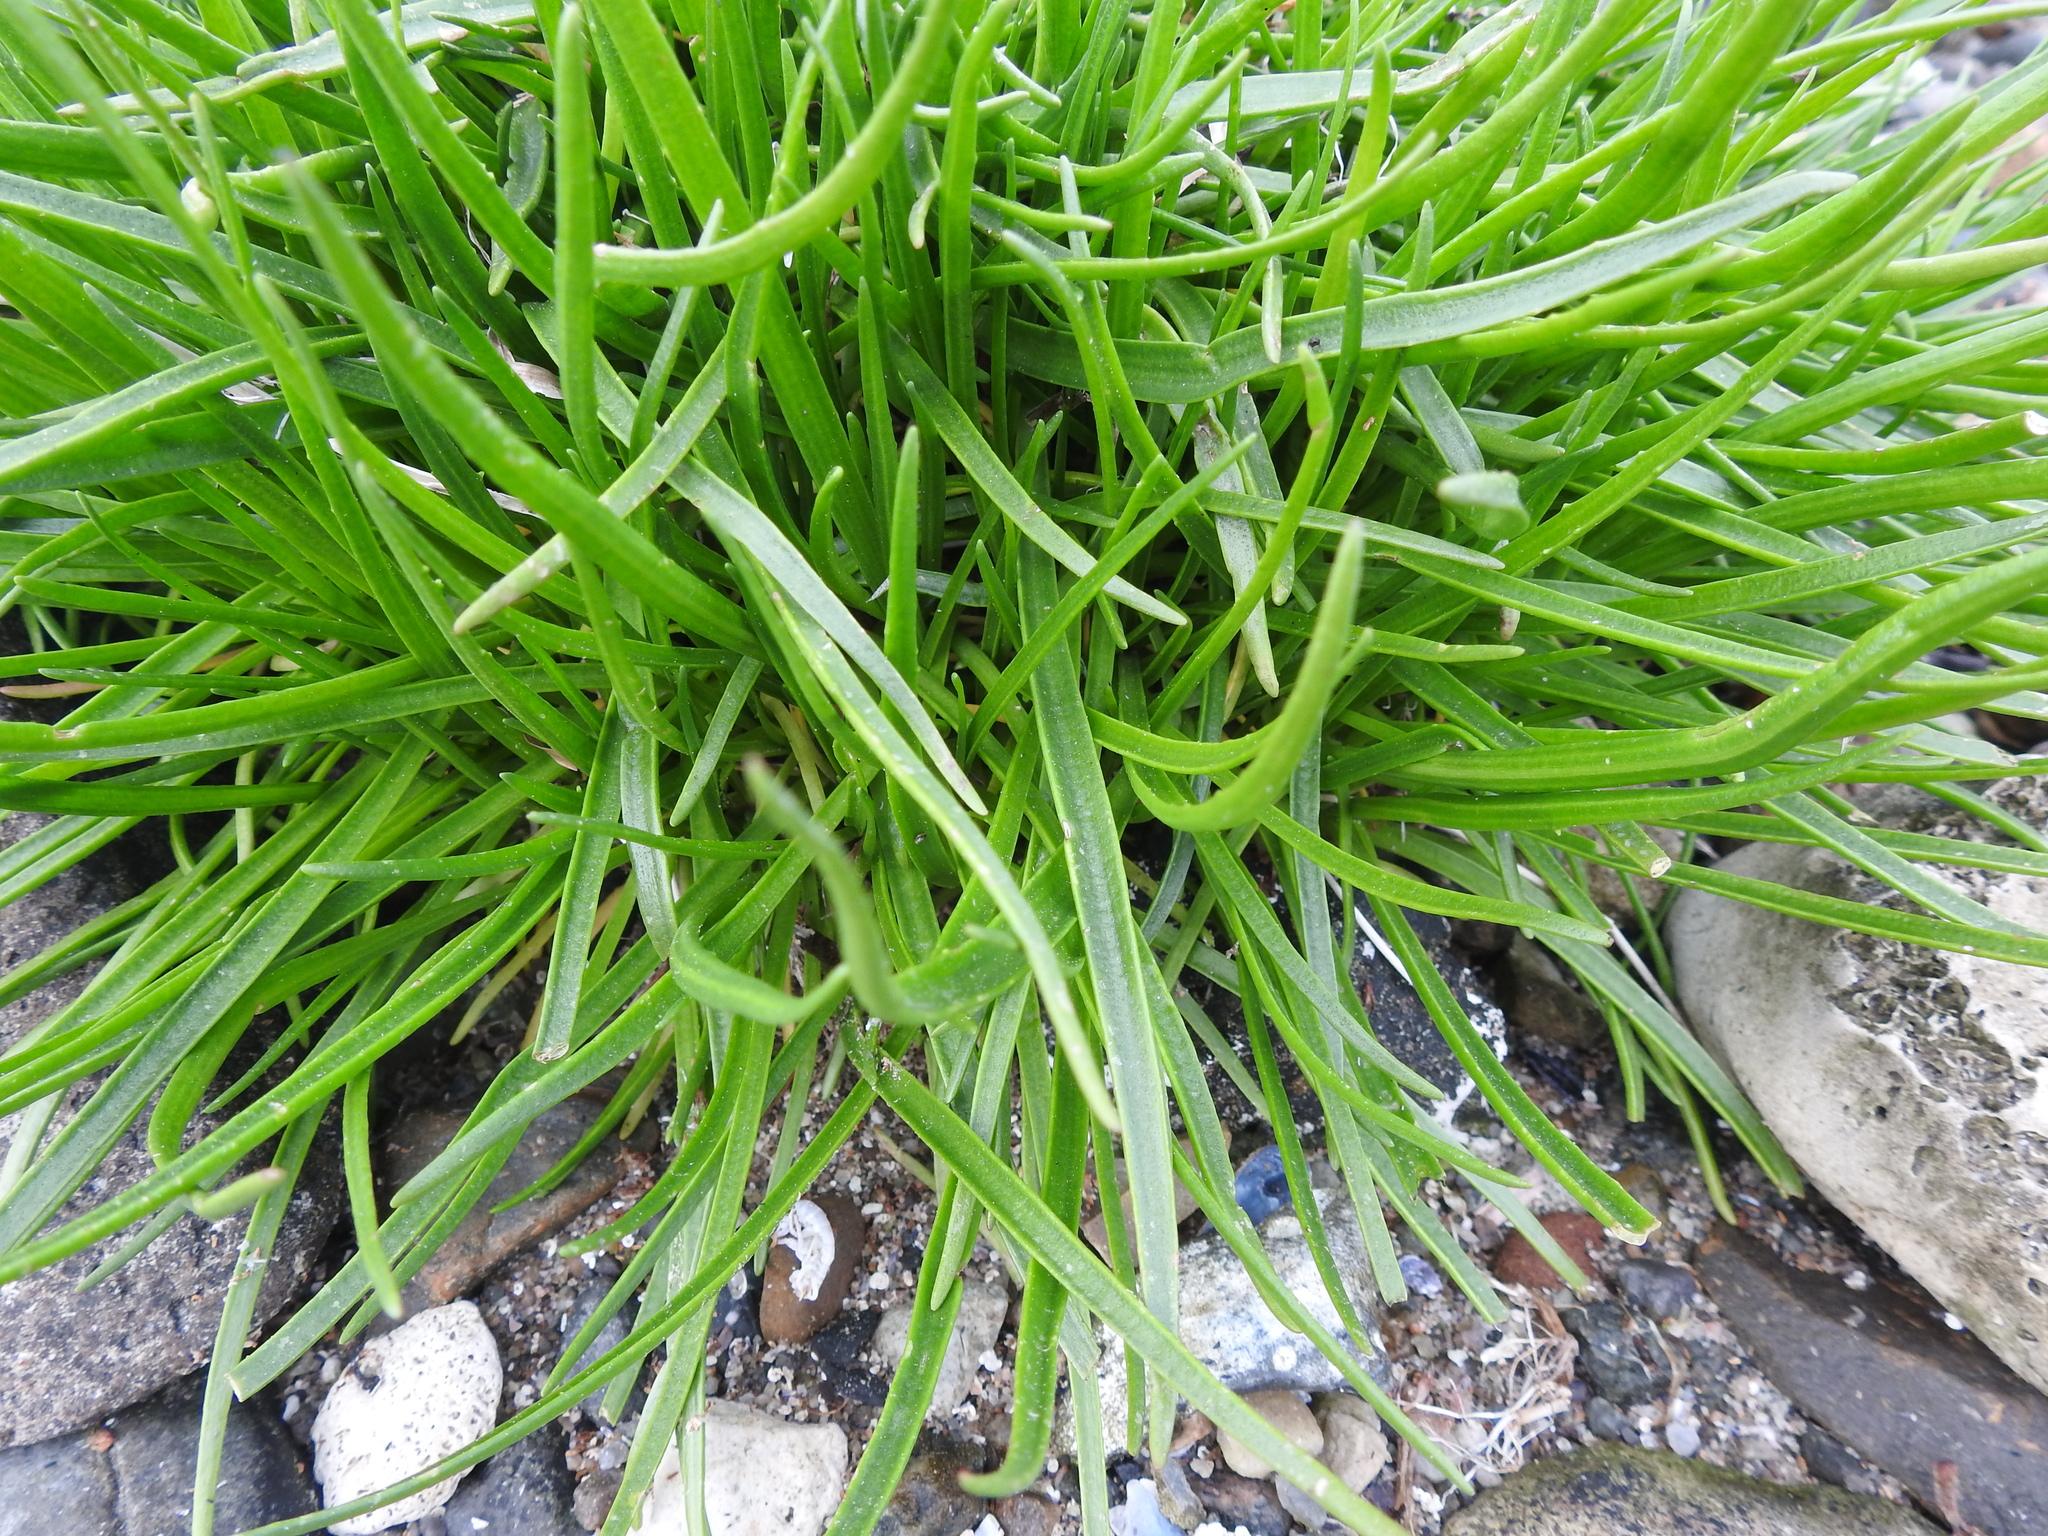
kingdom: Plantae
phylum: Tracheophyta
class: Magnoliopsida
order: Lamiales
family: Plantaginaceae
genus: Plantago
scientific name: Plantago maritima
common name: Sea plantain
